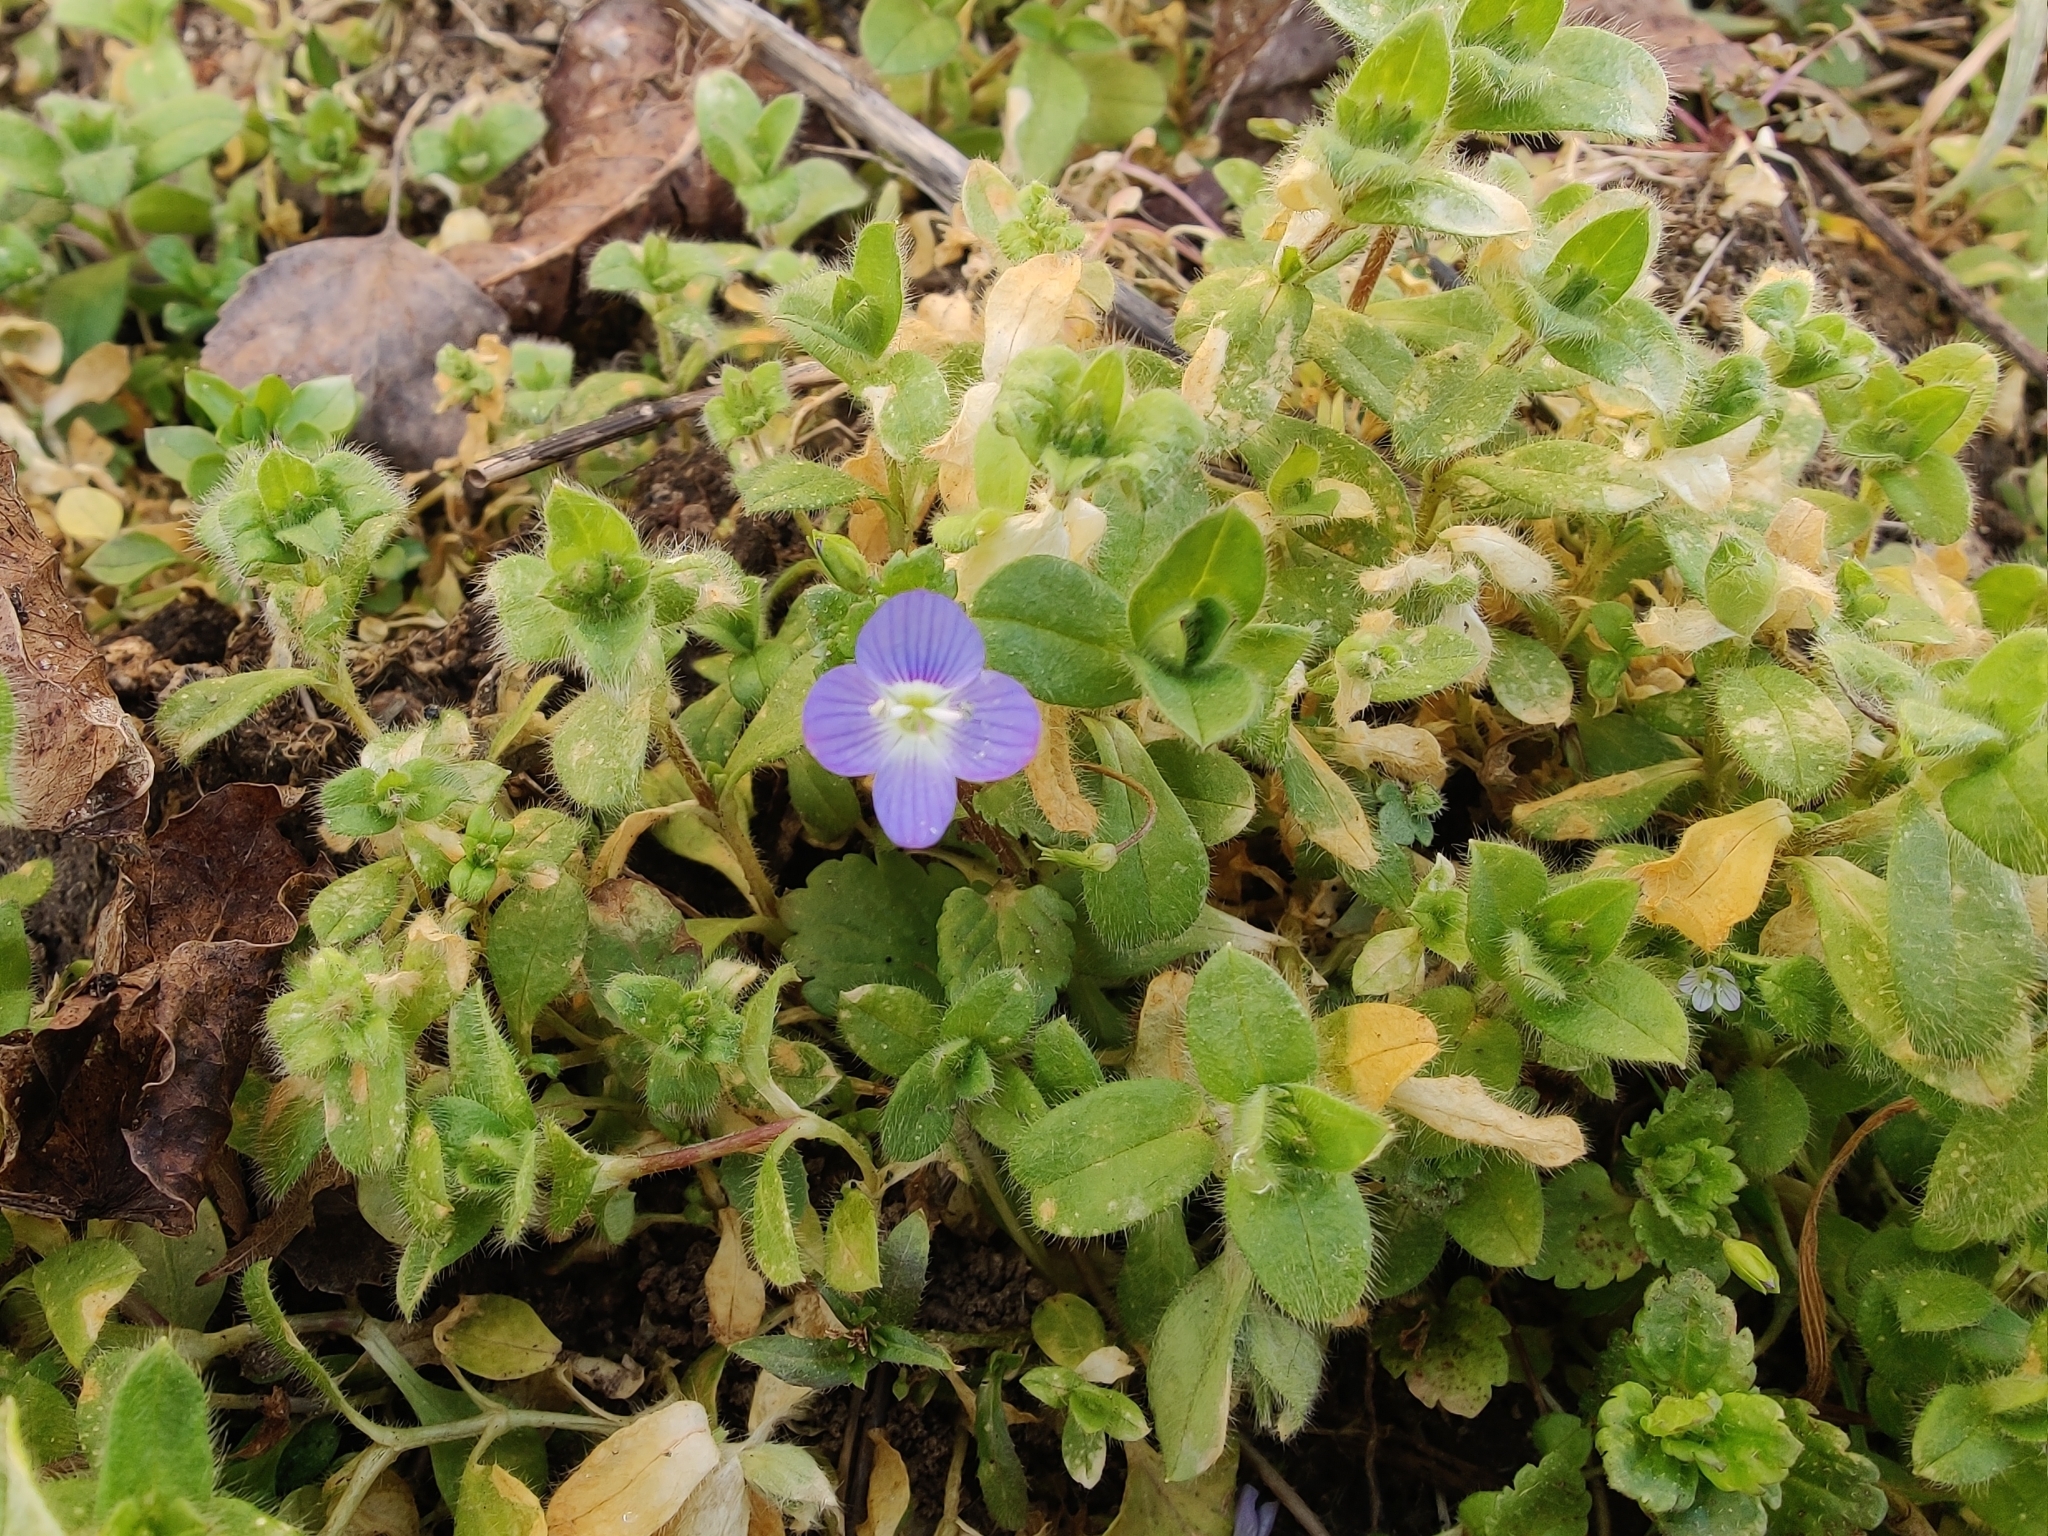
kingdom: Plantae
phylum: Tracheophyta
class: Magnoliopsida
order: Lamiales
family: Plantaginaceae
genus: Veronica
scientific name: Veronica persica
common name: Common field-speedwell
